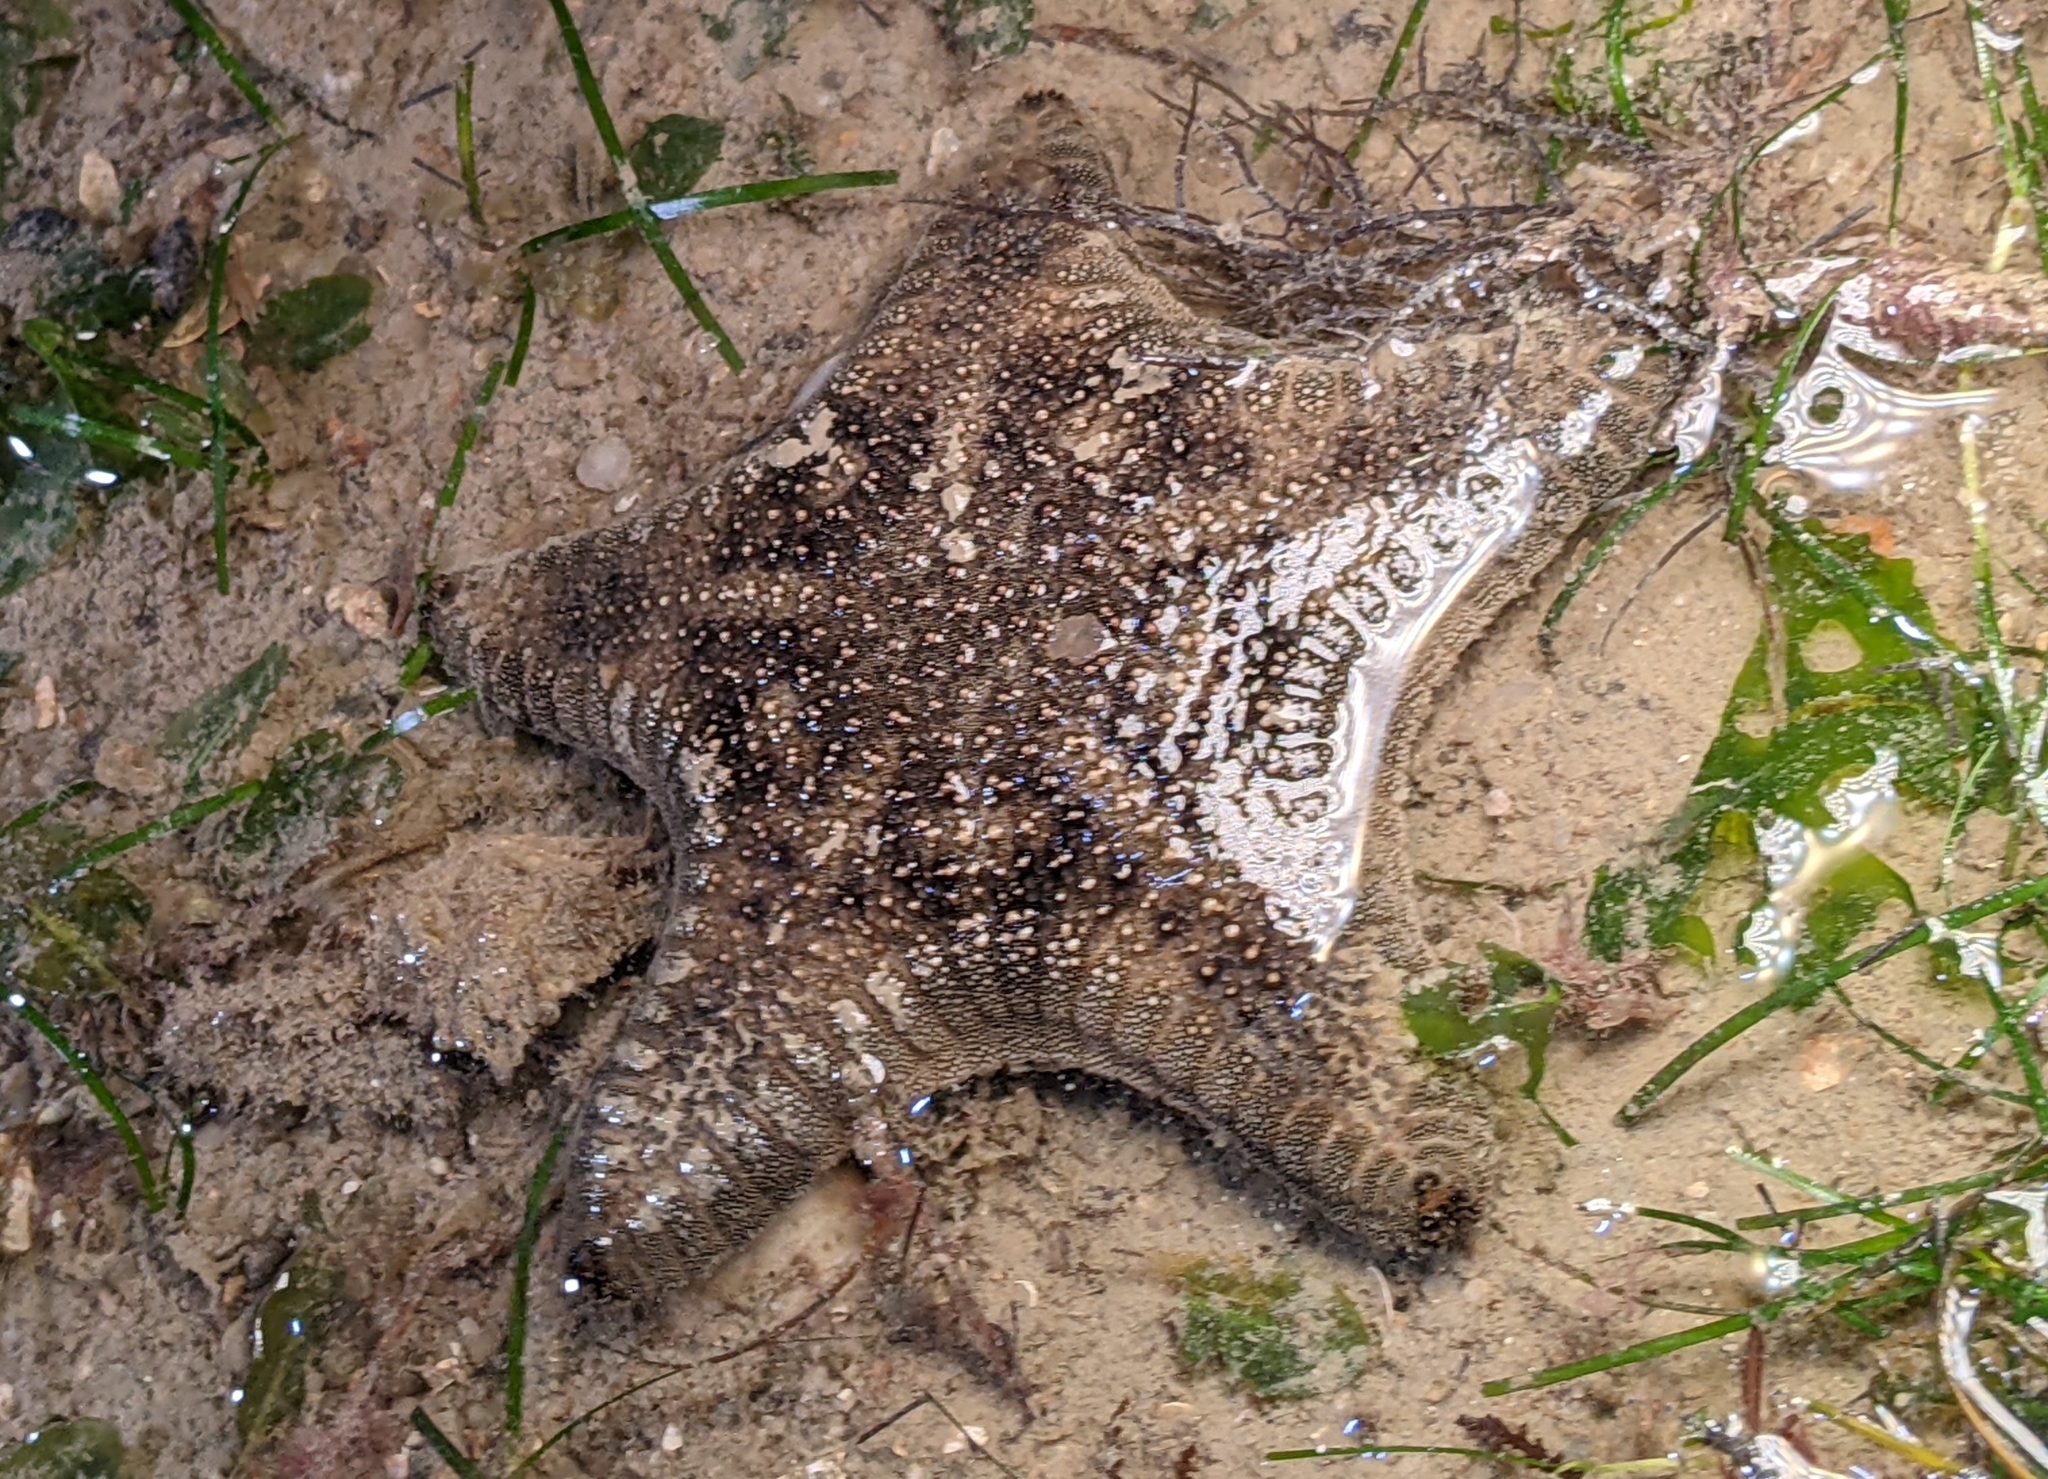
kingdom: Animalia
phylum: Echinodermata
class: Asteroidea
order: Valvatida
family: Goniasteridae
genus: Goniodiscaster
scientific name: Goniodiscaster scaber
